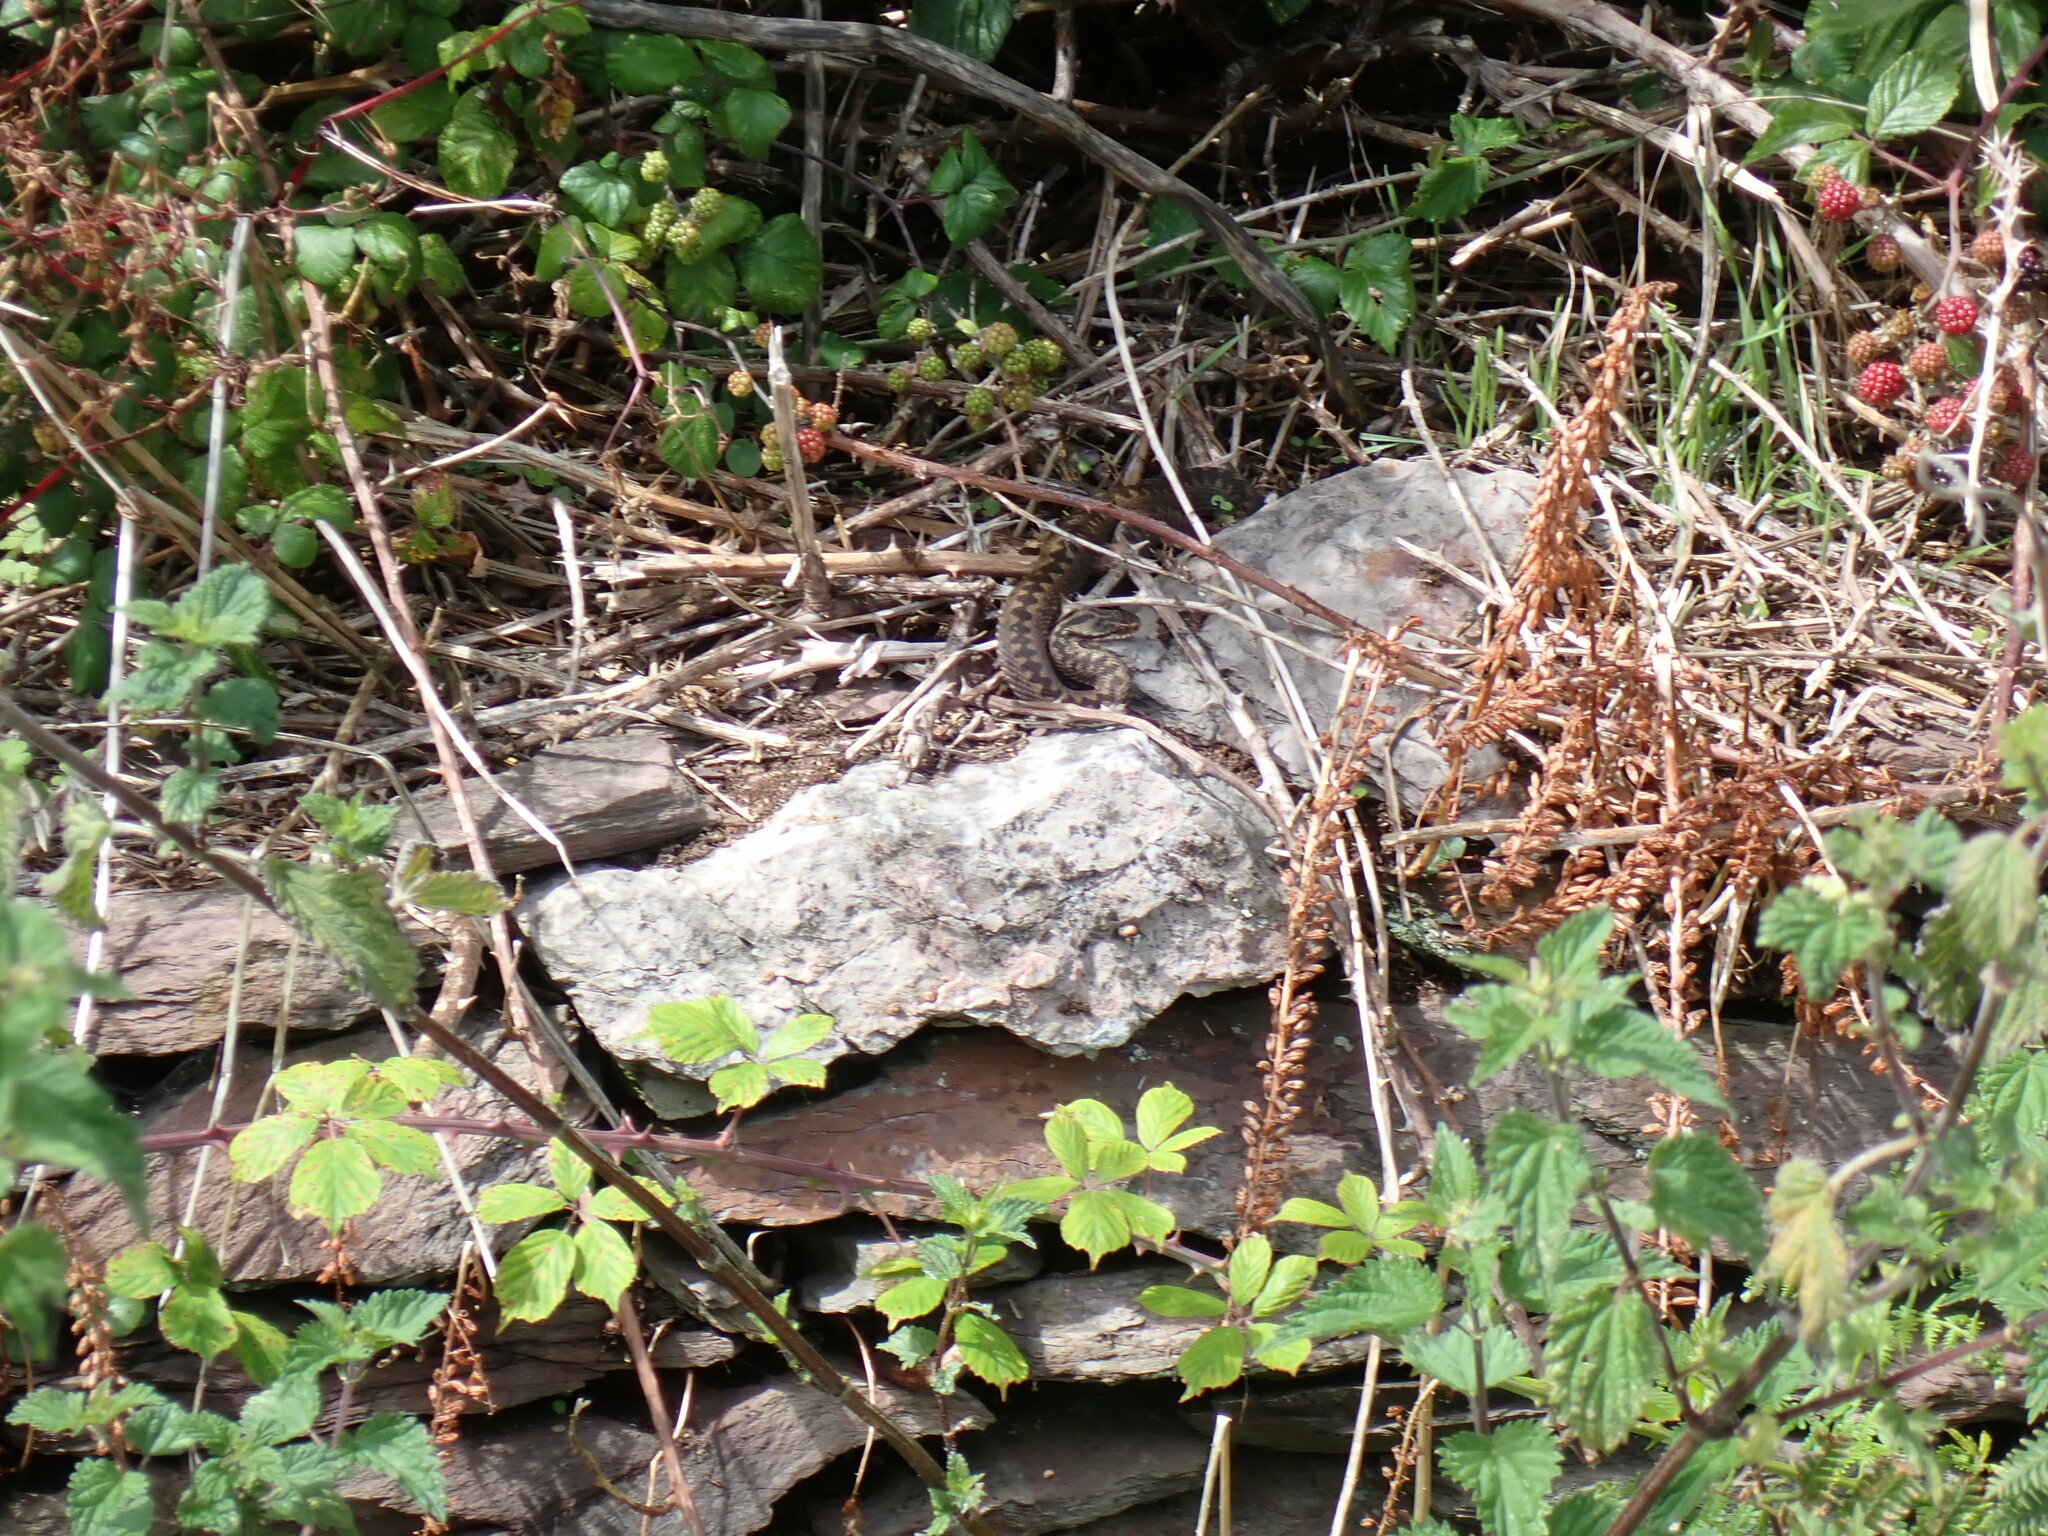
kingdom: Animalia
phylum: Chordata
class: Squamata
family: Viperidae
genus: Vipera
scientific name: Vipera berus
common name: Adder
